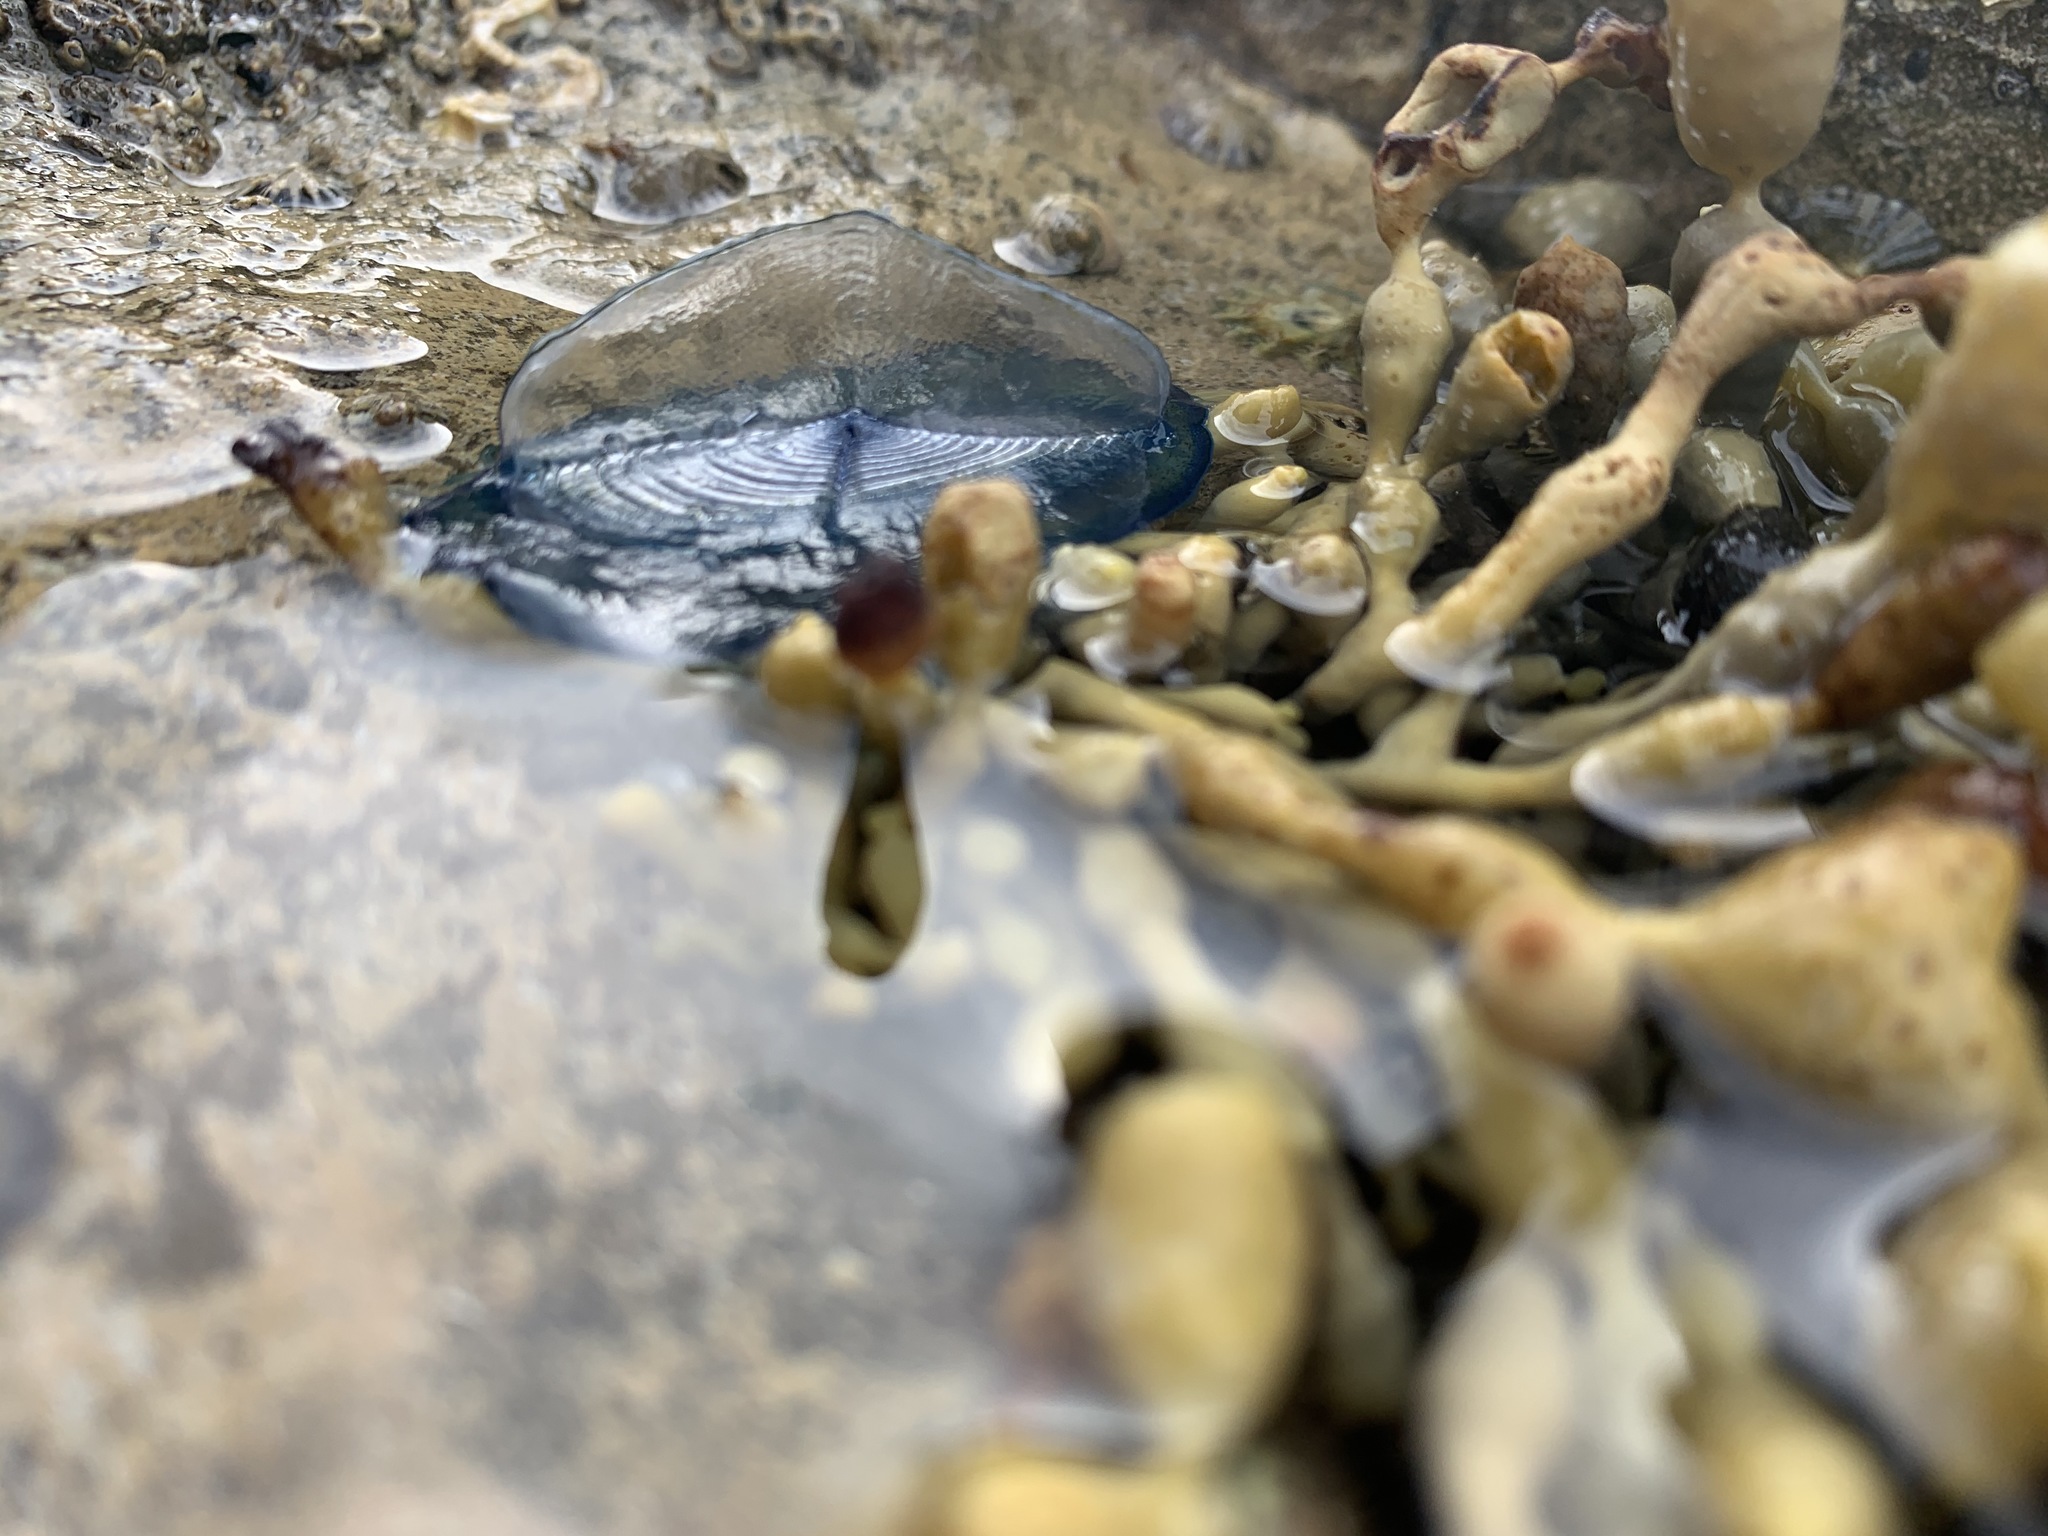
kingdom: Animalia
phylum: Cnidaria
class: Hydrozoa
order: Anthoathecata
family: Porpitidae
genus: Velella
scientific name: Velella velella
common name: By-the-wind-sailor
